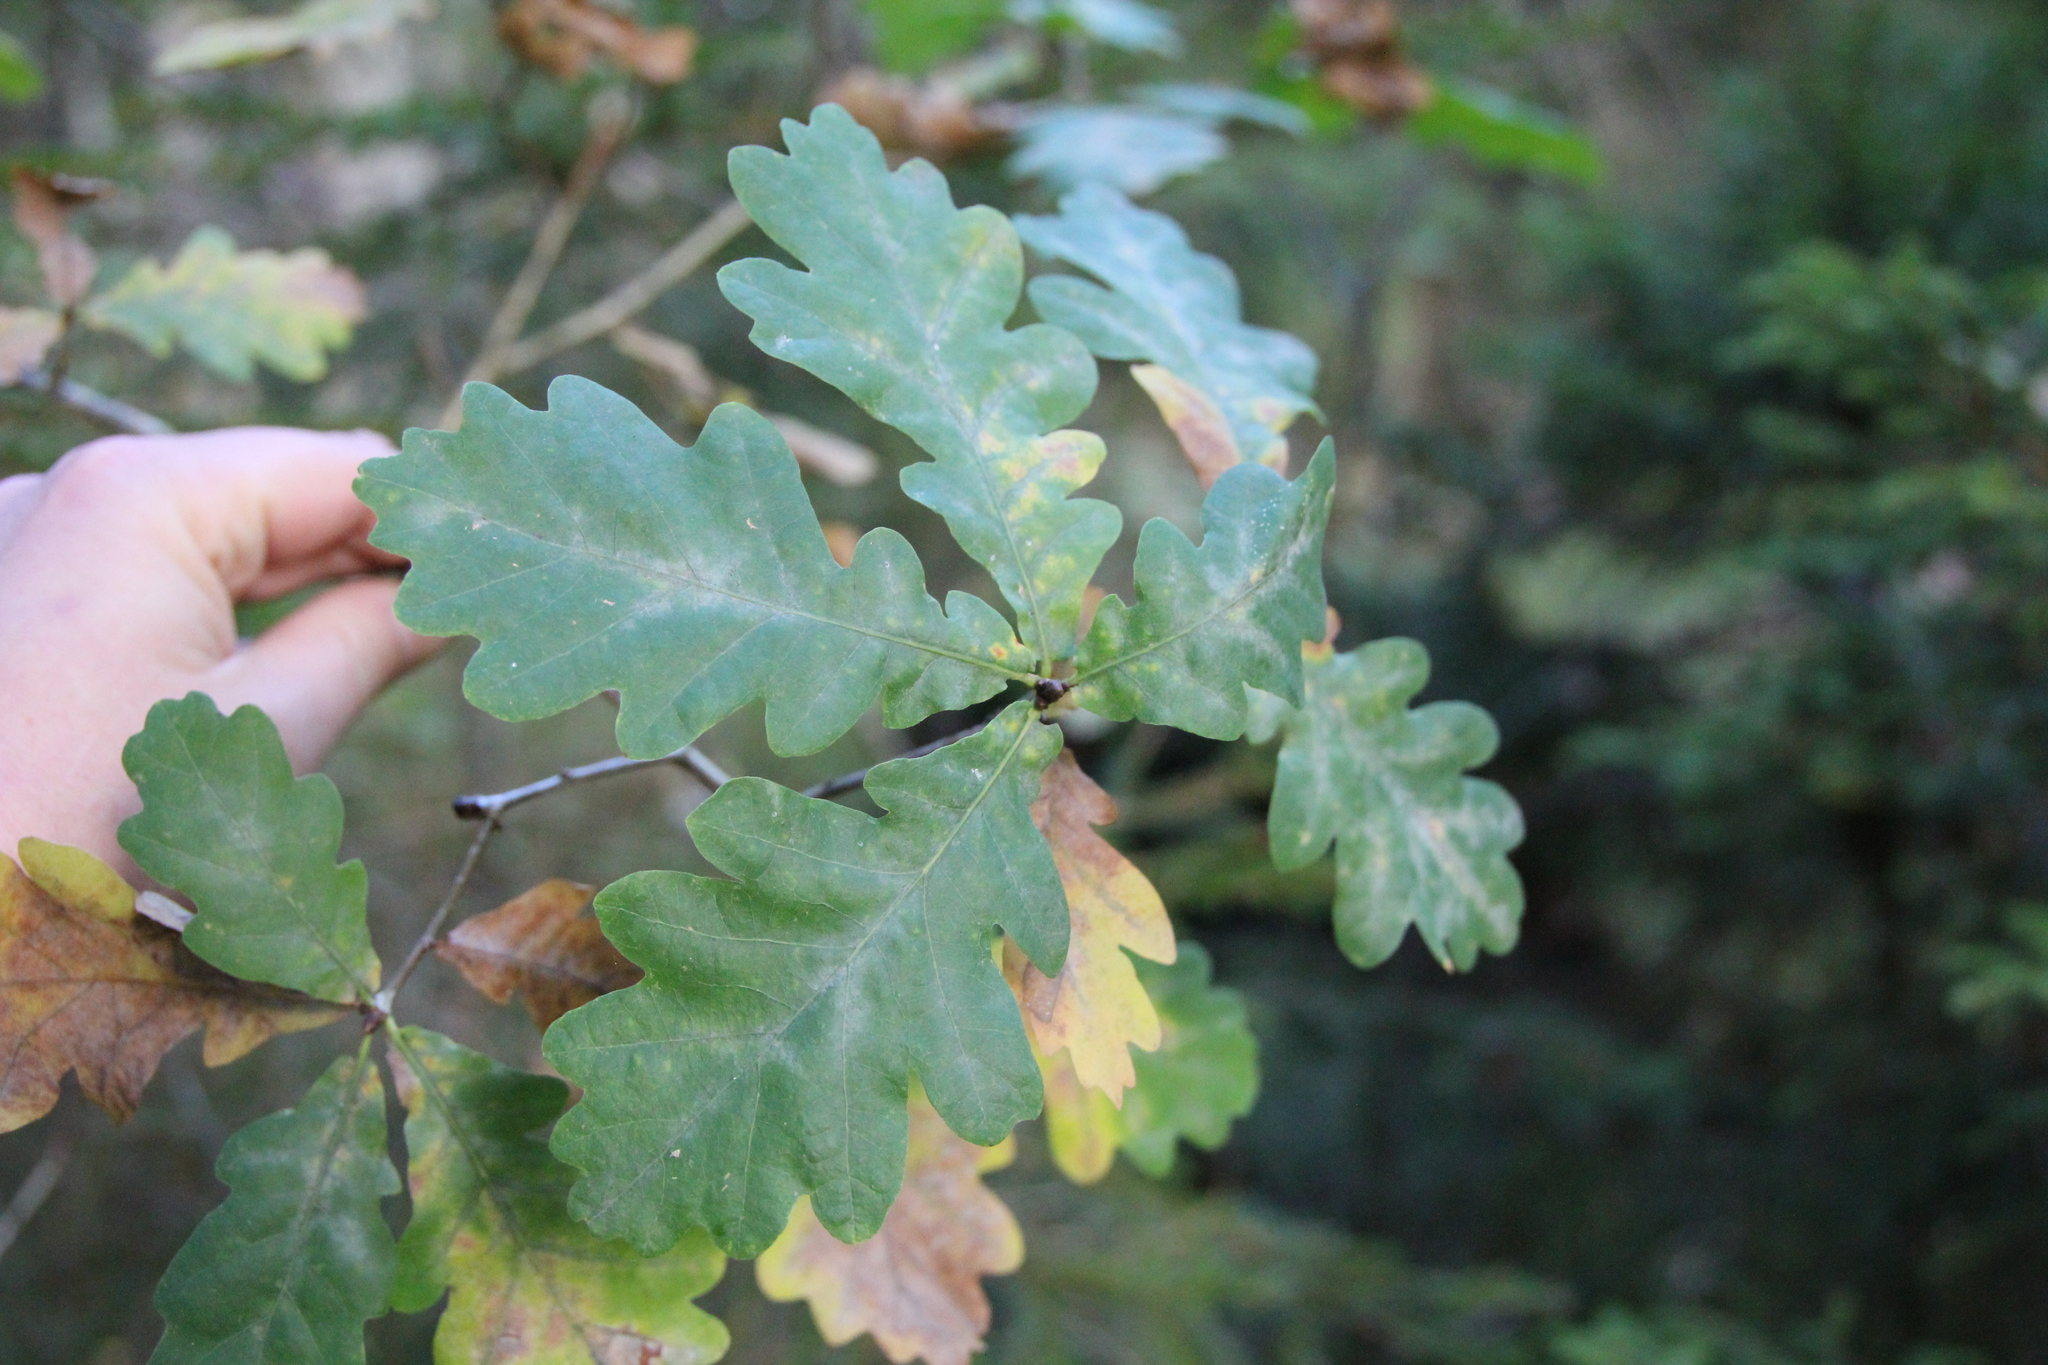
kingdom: Plantae
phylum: Tracheophyta
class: Magnoliopsida
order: Fagales
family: Fagaceae
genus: Quercus
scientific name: Quercus robur
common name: Pedunculate oak
